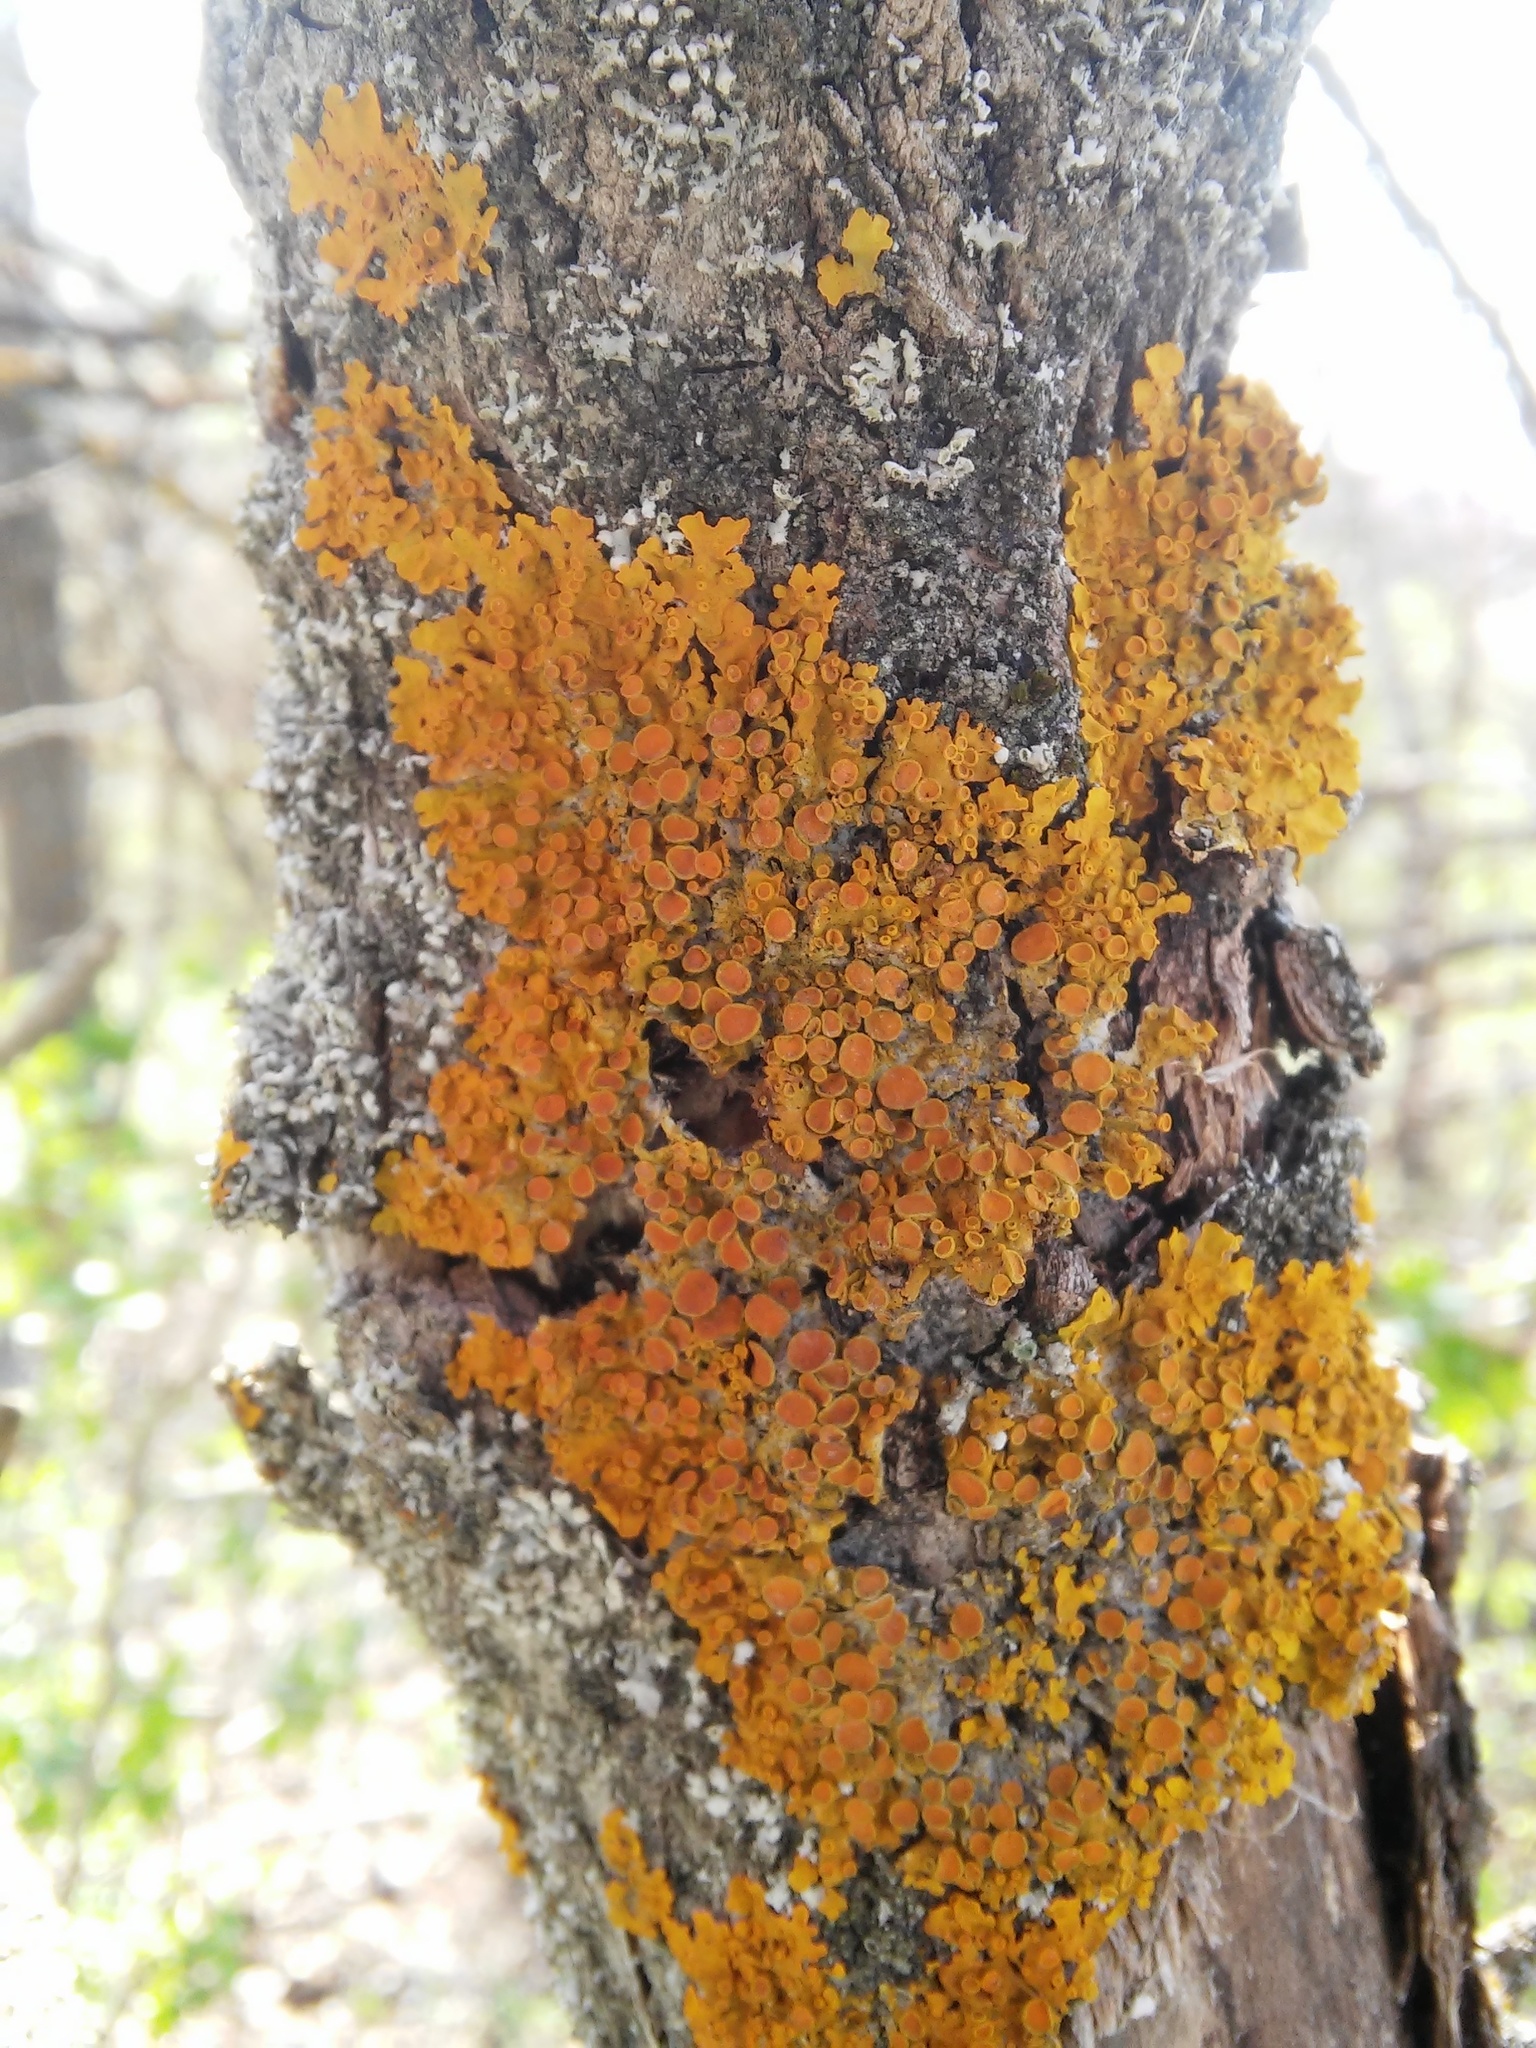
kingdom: Fungi
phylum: Ascomycota
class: Lecanoromycetes
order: Teloschistales
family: Teloschistaceae
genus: Xanthoria
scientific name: Xanthoria parietina
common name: Common orange lichen
